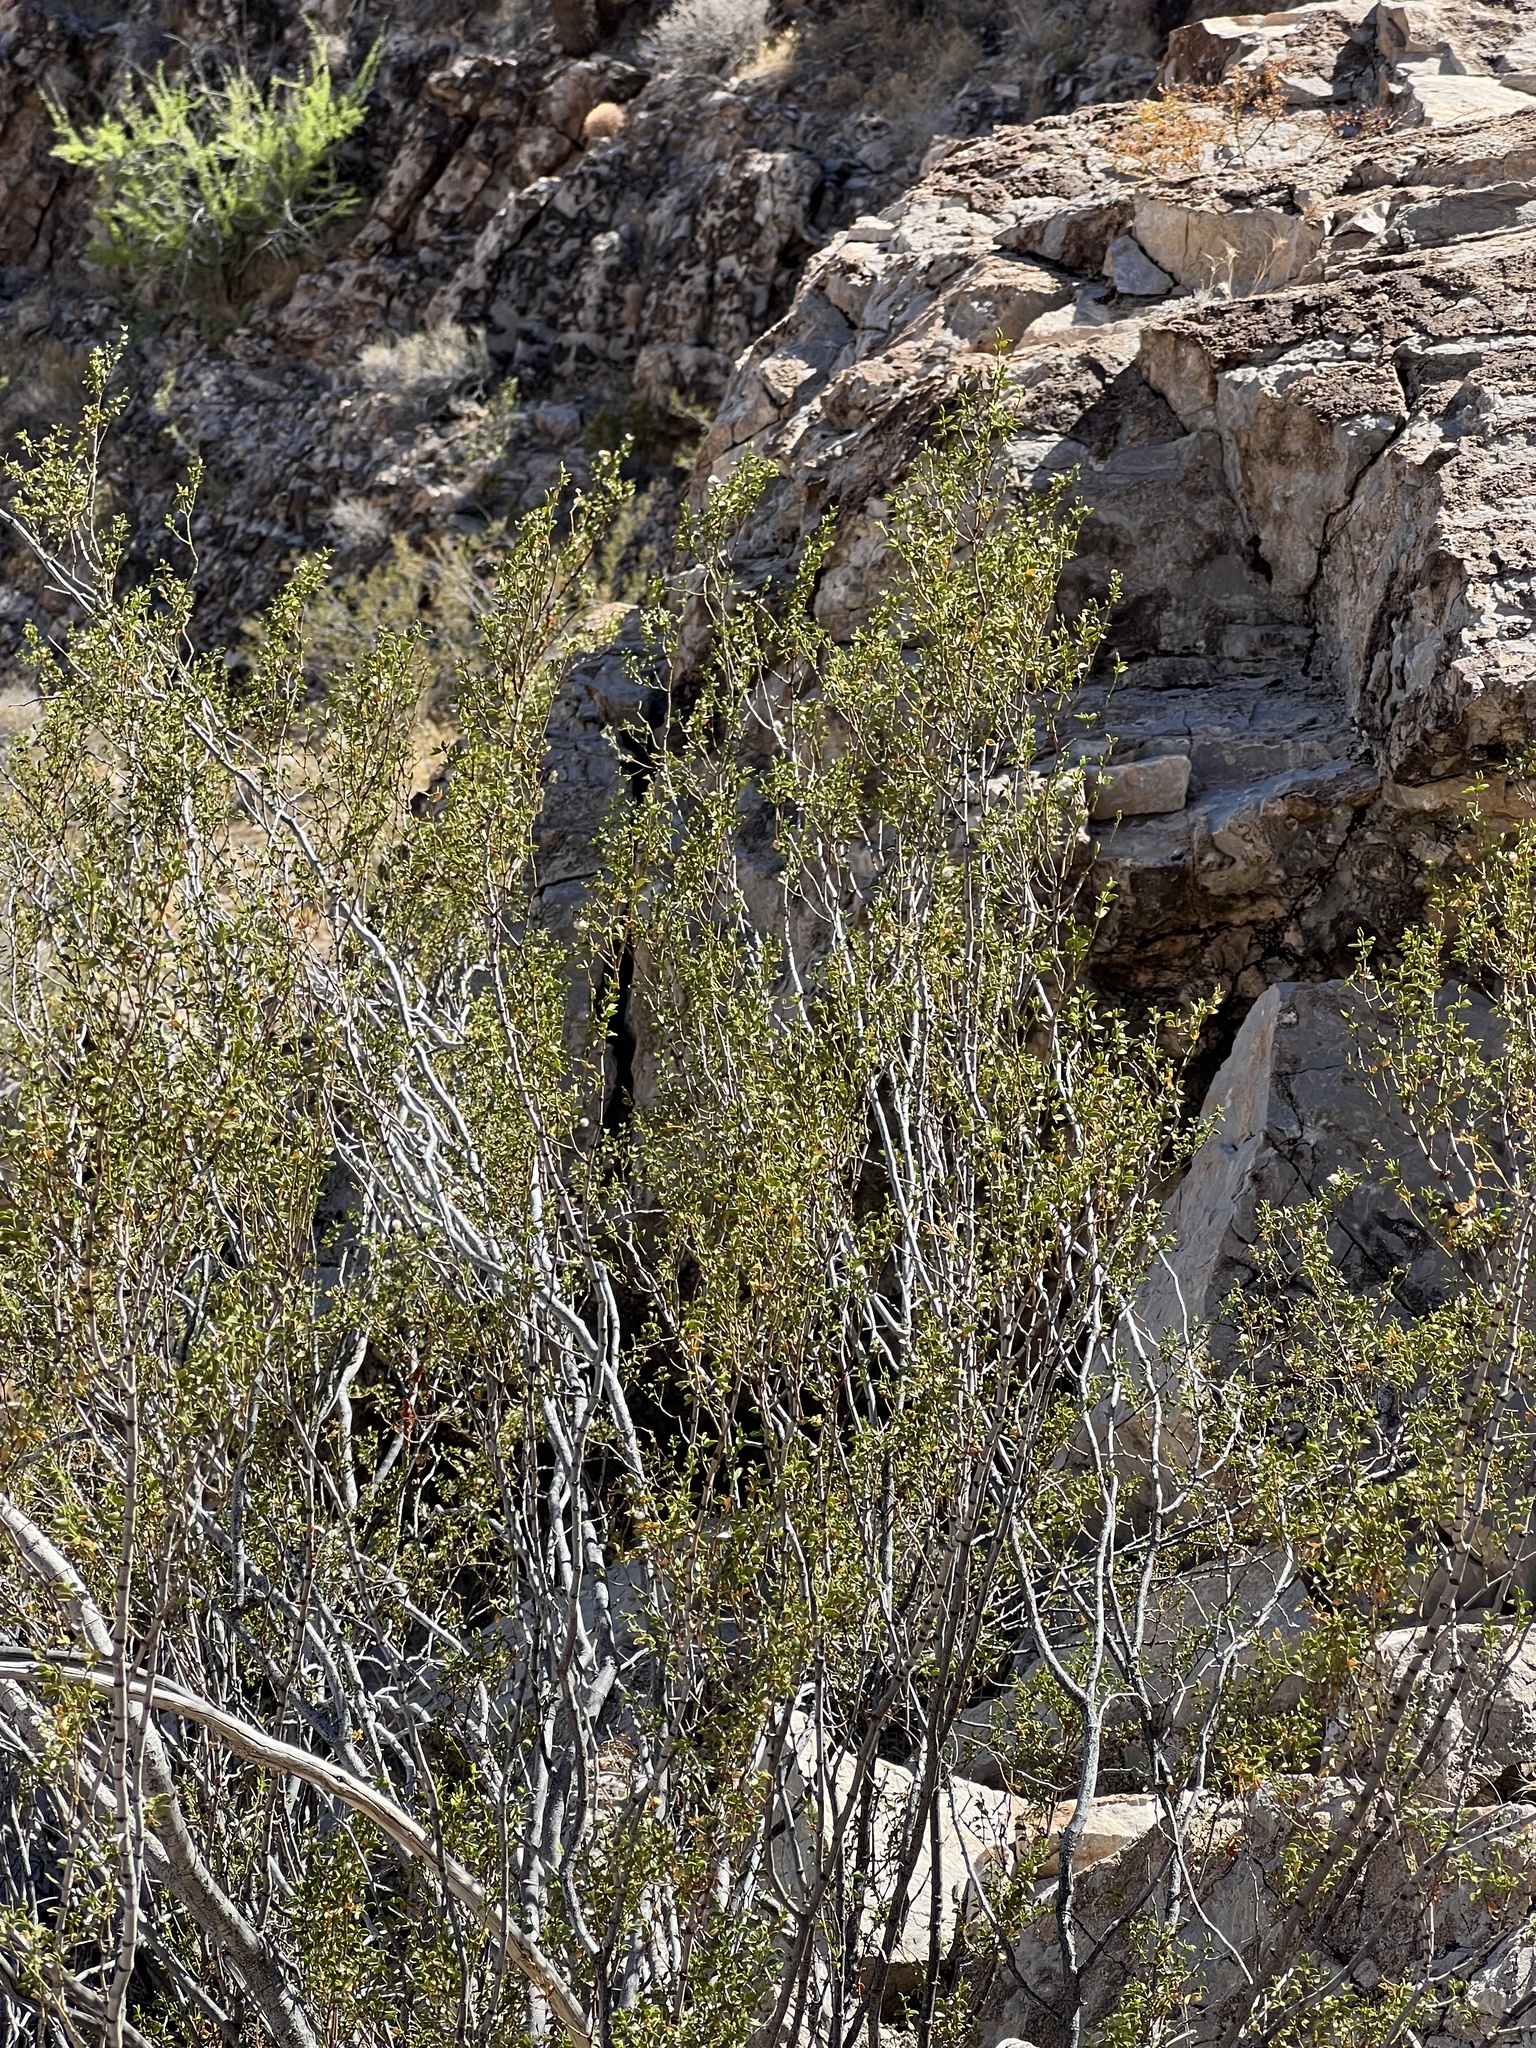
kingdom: Plantae
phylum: Tracheophyta
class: Magnoliopsida
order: Zygophyllales
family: Zygophyllaceae
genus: Larrea
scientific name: Larrea tridentata
